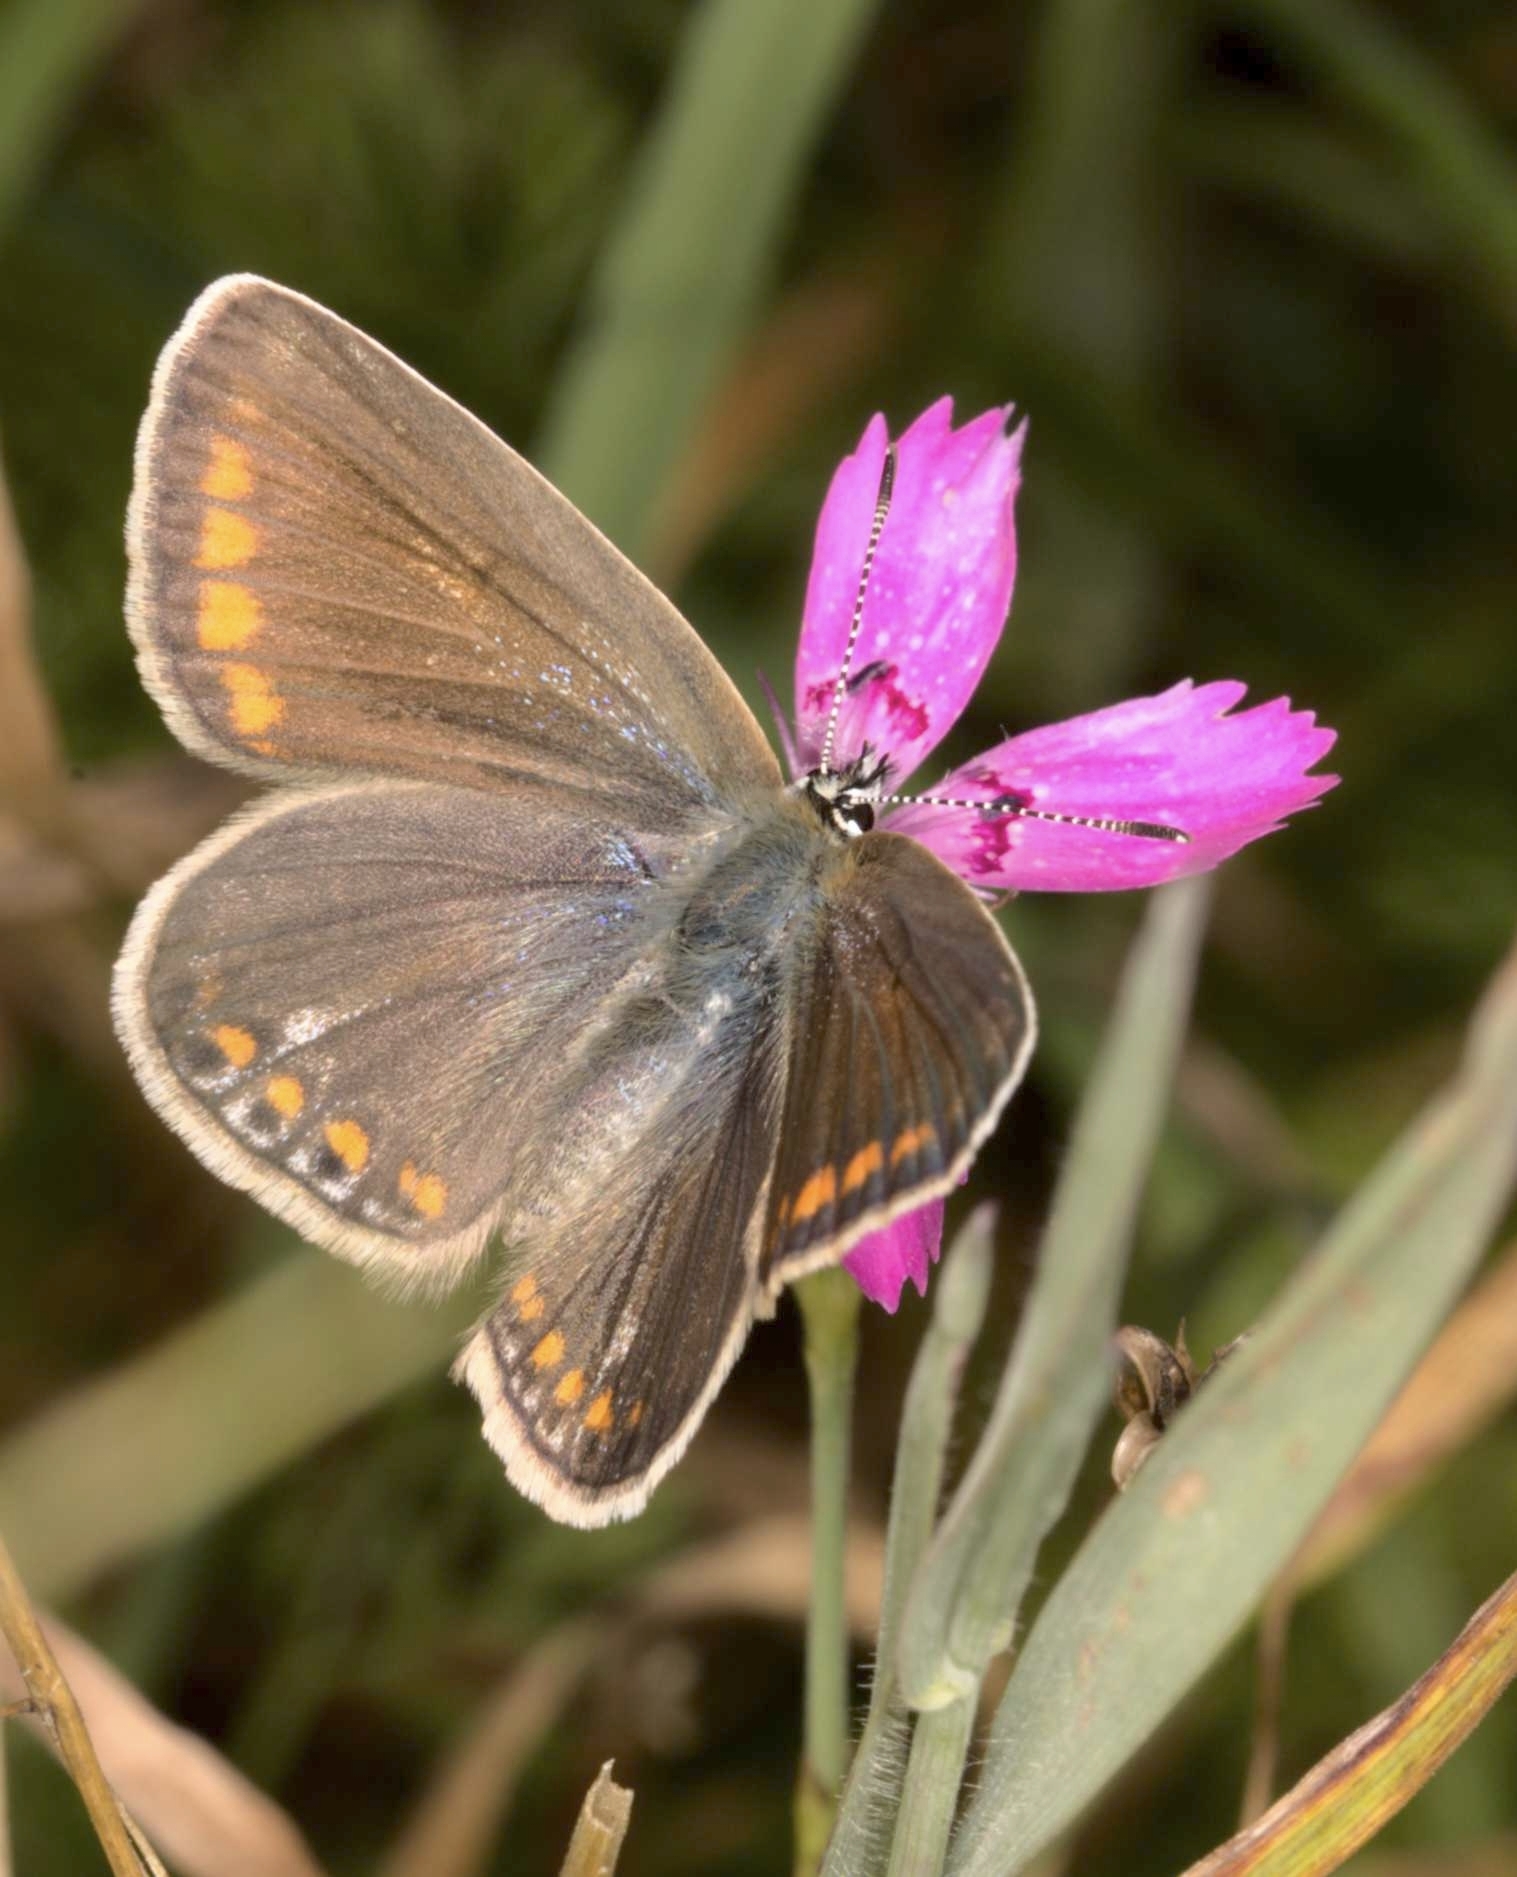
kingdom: Animalia
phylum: Arthropoda
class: Insecta
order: Lepidoptera
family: Lycaenidae
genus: Polyommatus
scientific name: Polyommatus icarus
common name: Common blue
